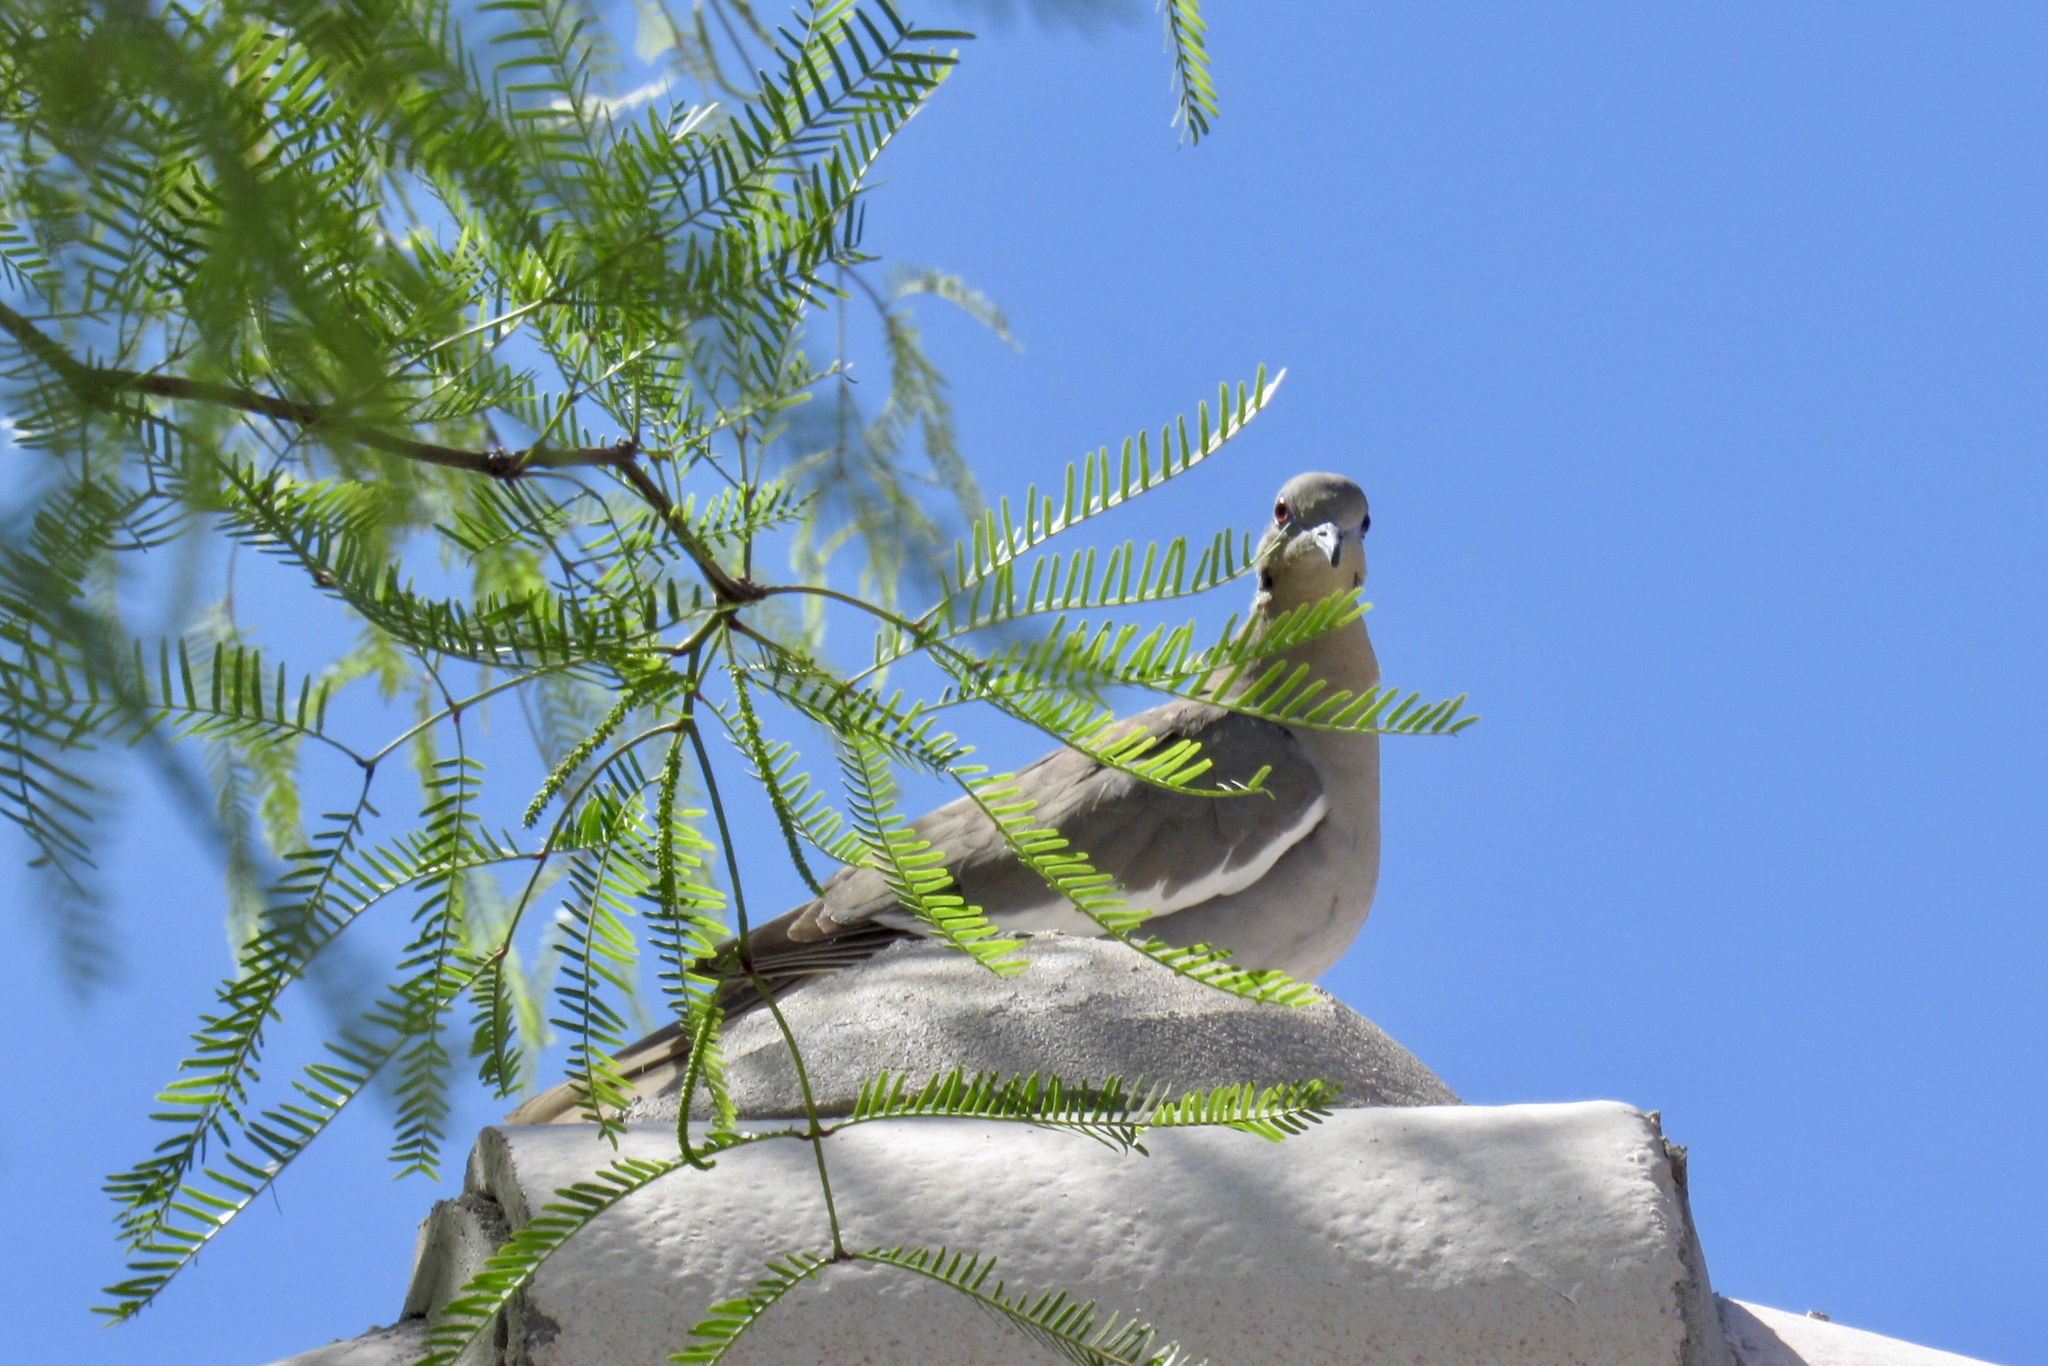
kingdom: Animalia
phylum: Chordata
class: Aves
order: Columbiformes
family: Columbidae
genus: Zenaida
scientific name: Zenaida asiatica
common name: White-winged dove
